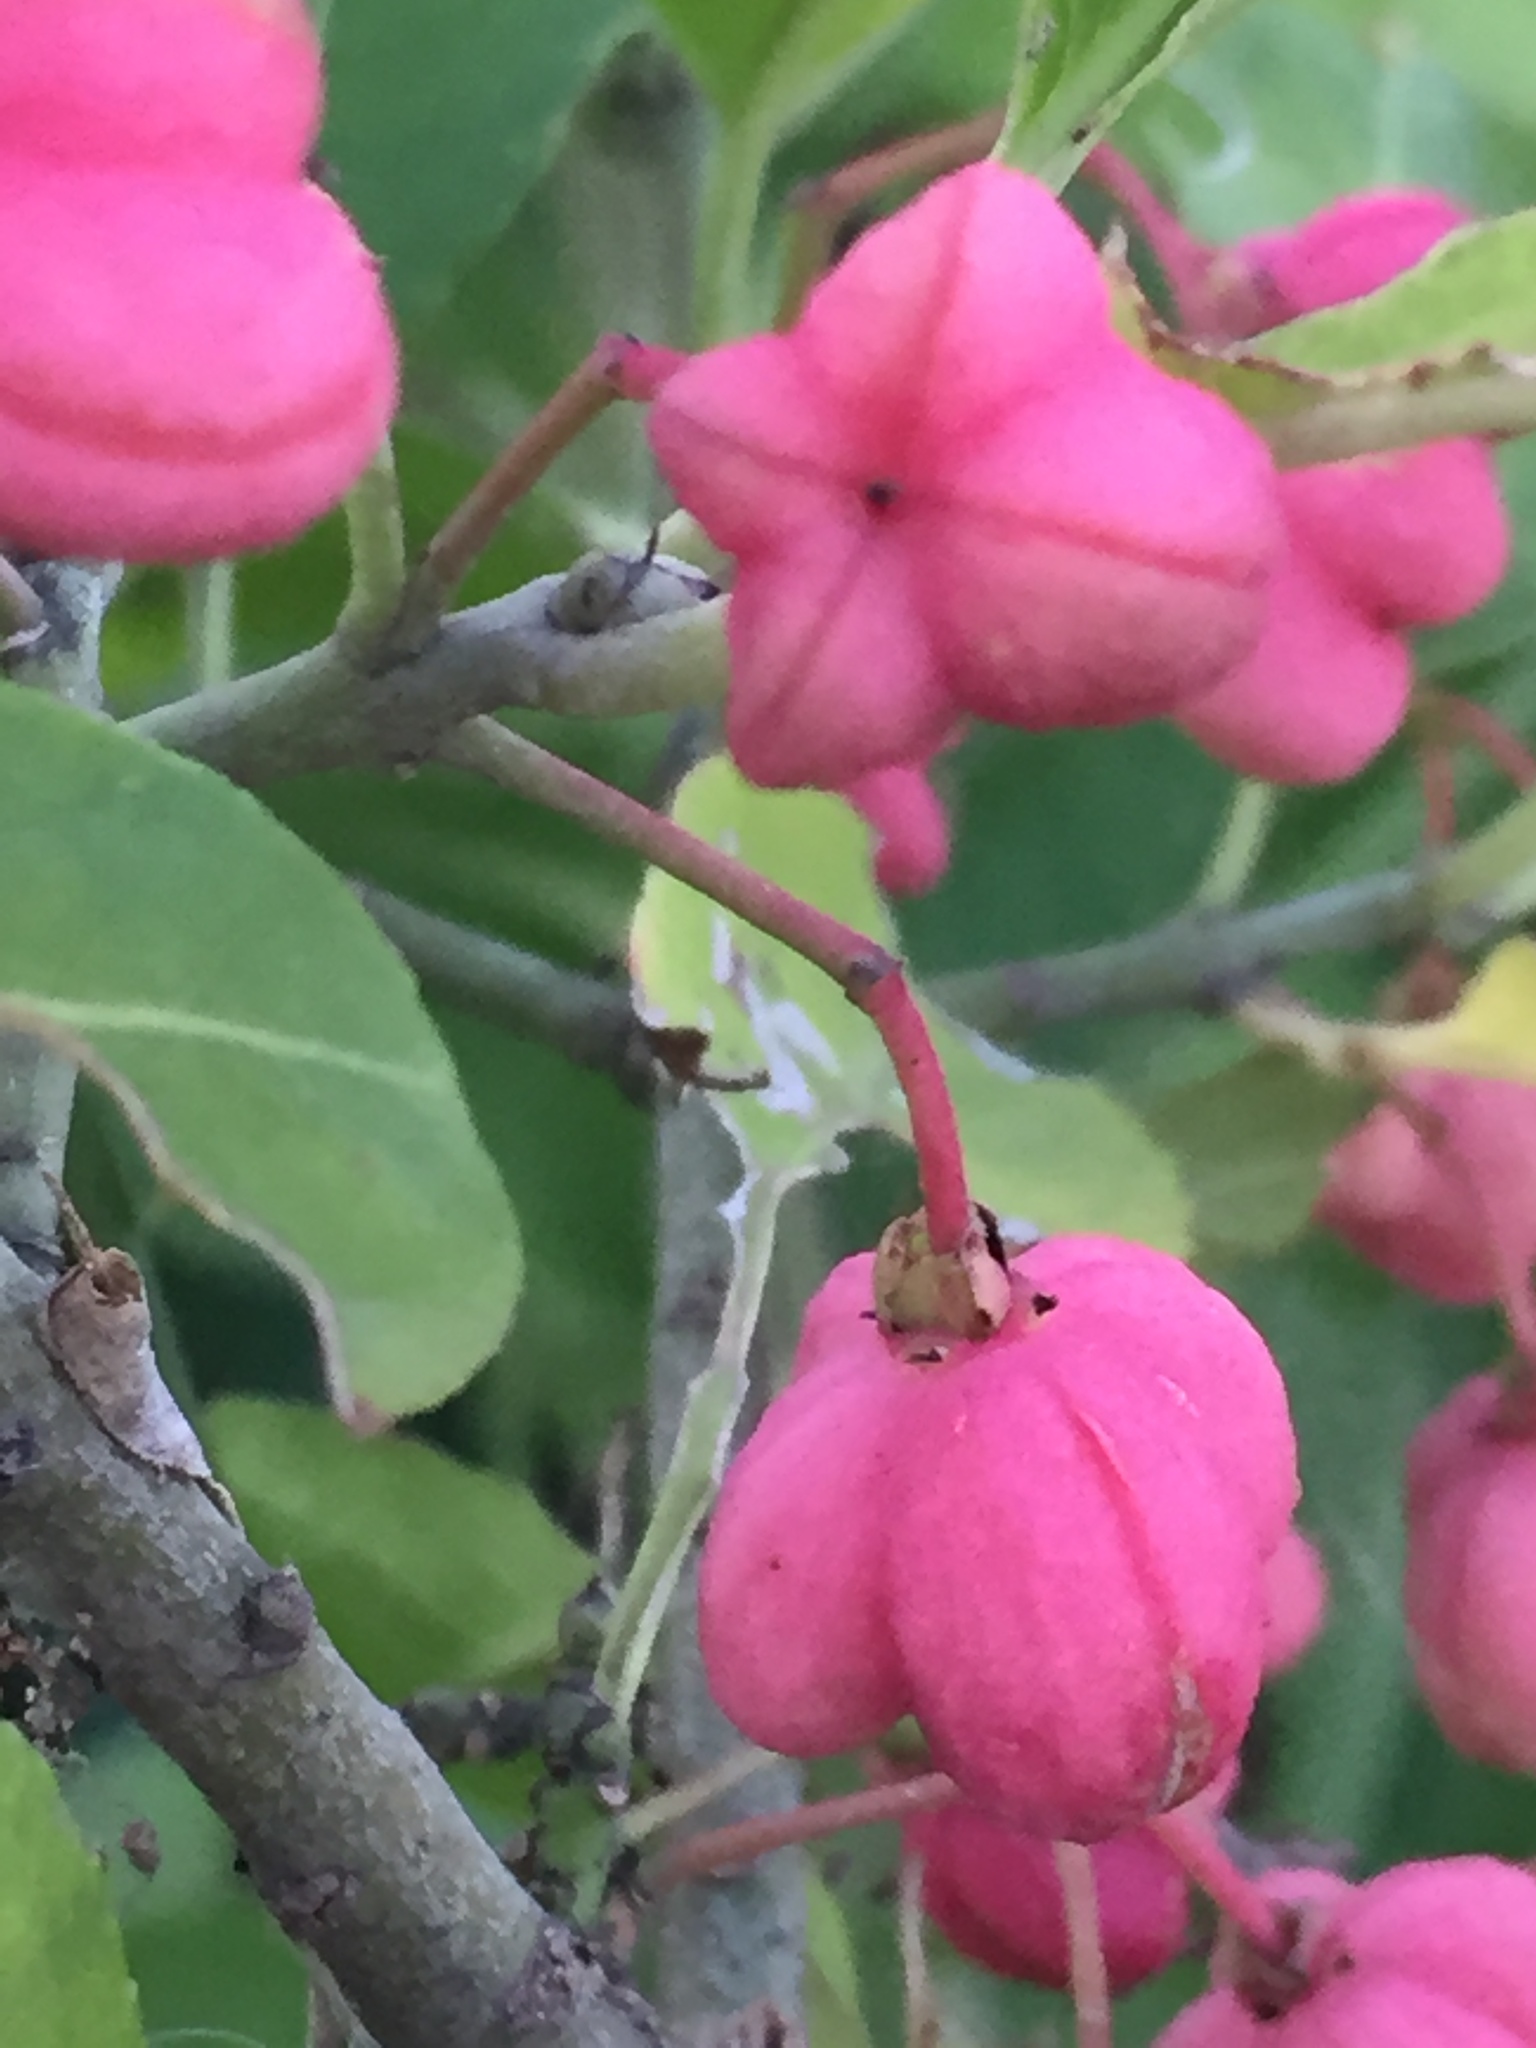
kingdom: Plantae
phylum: Tracheophyta
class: Magnoliopsida
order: Celastrales
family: Celastraceae
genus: Euonymus
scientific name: Euonymus europaeus
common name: Spindle
